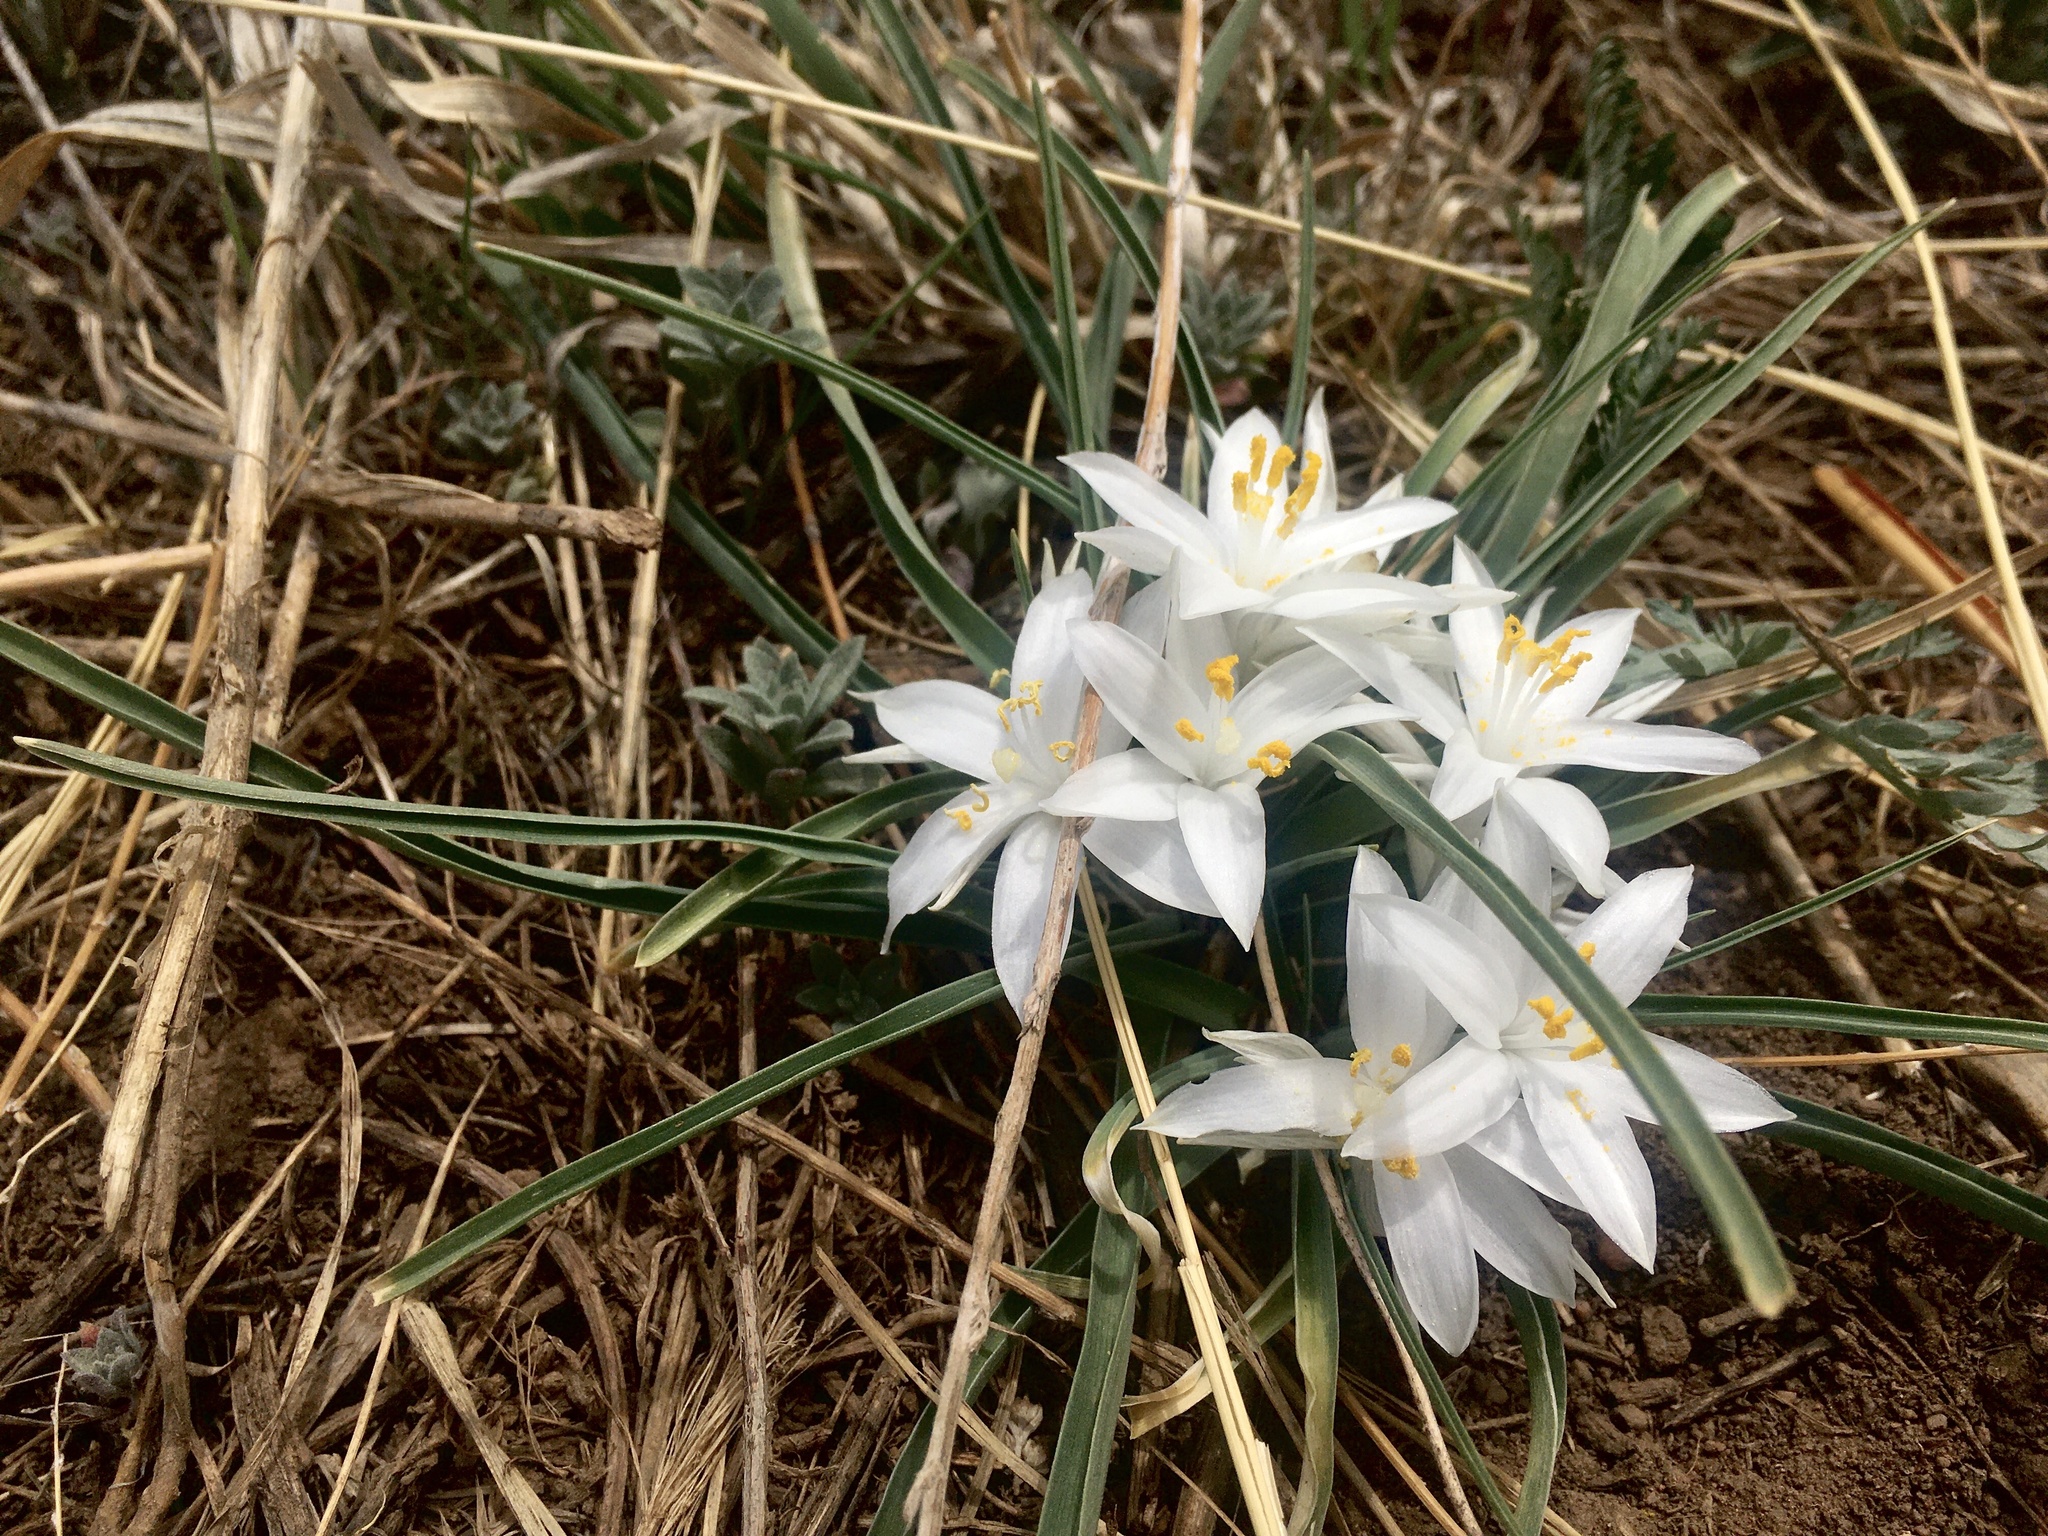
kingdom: Plantae
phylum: Tracheophyta
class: Liliopsida
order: Asparagales
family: Asparagaceae
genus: Leucocrinum
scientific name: Leucocrinum montanum
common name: Mountain-lily
